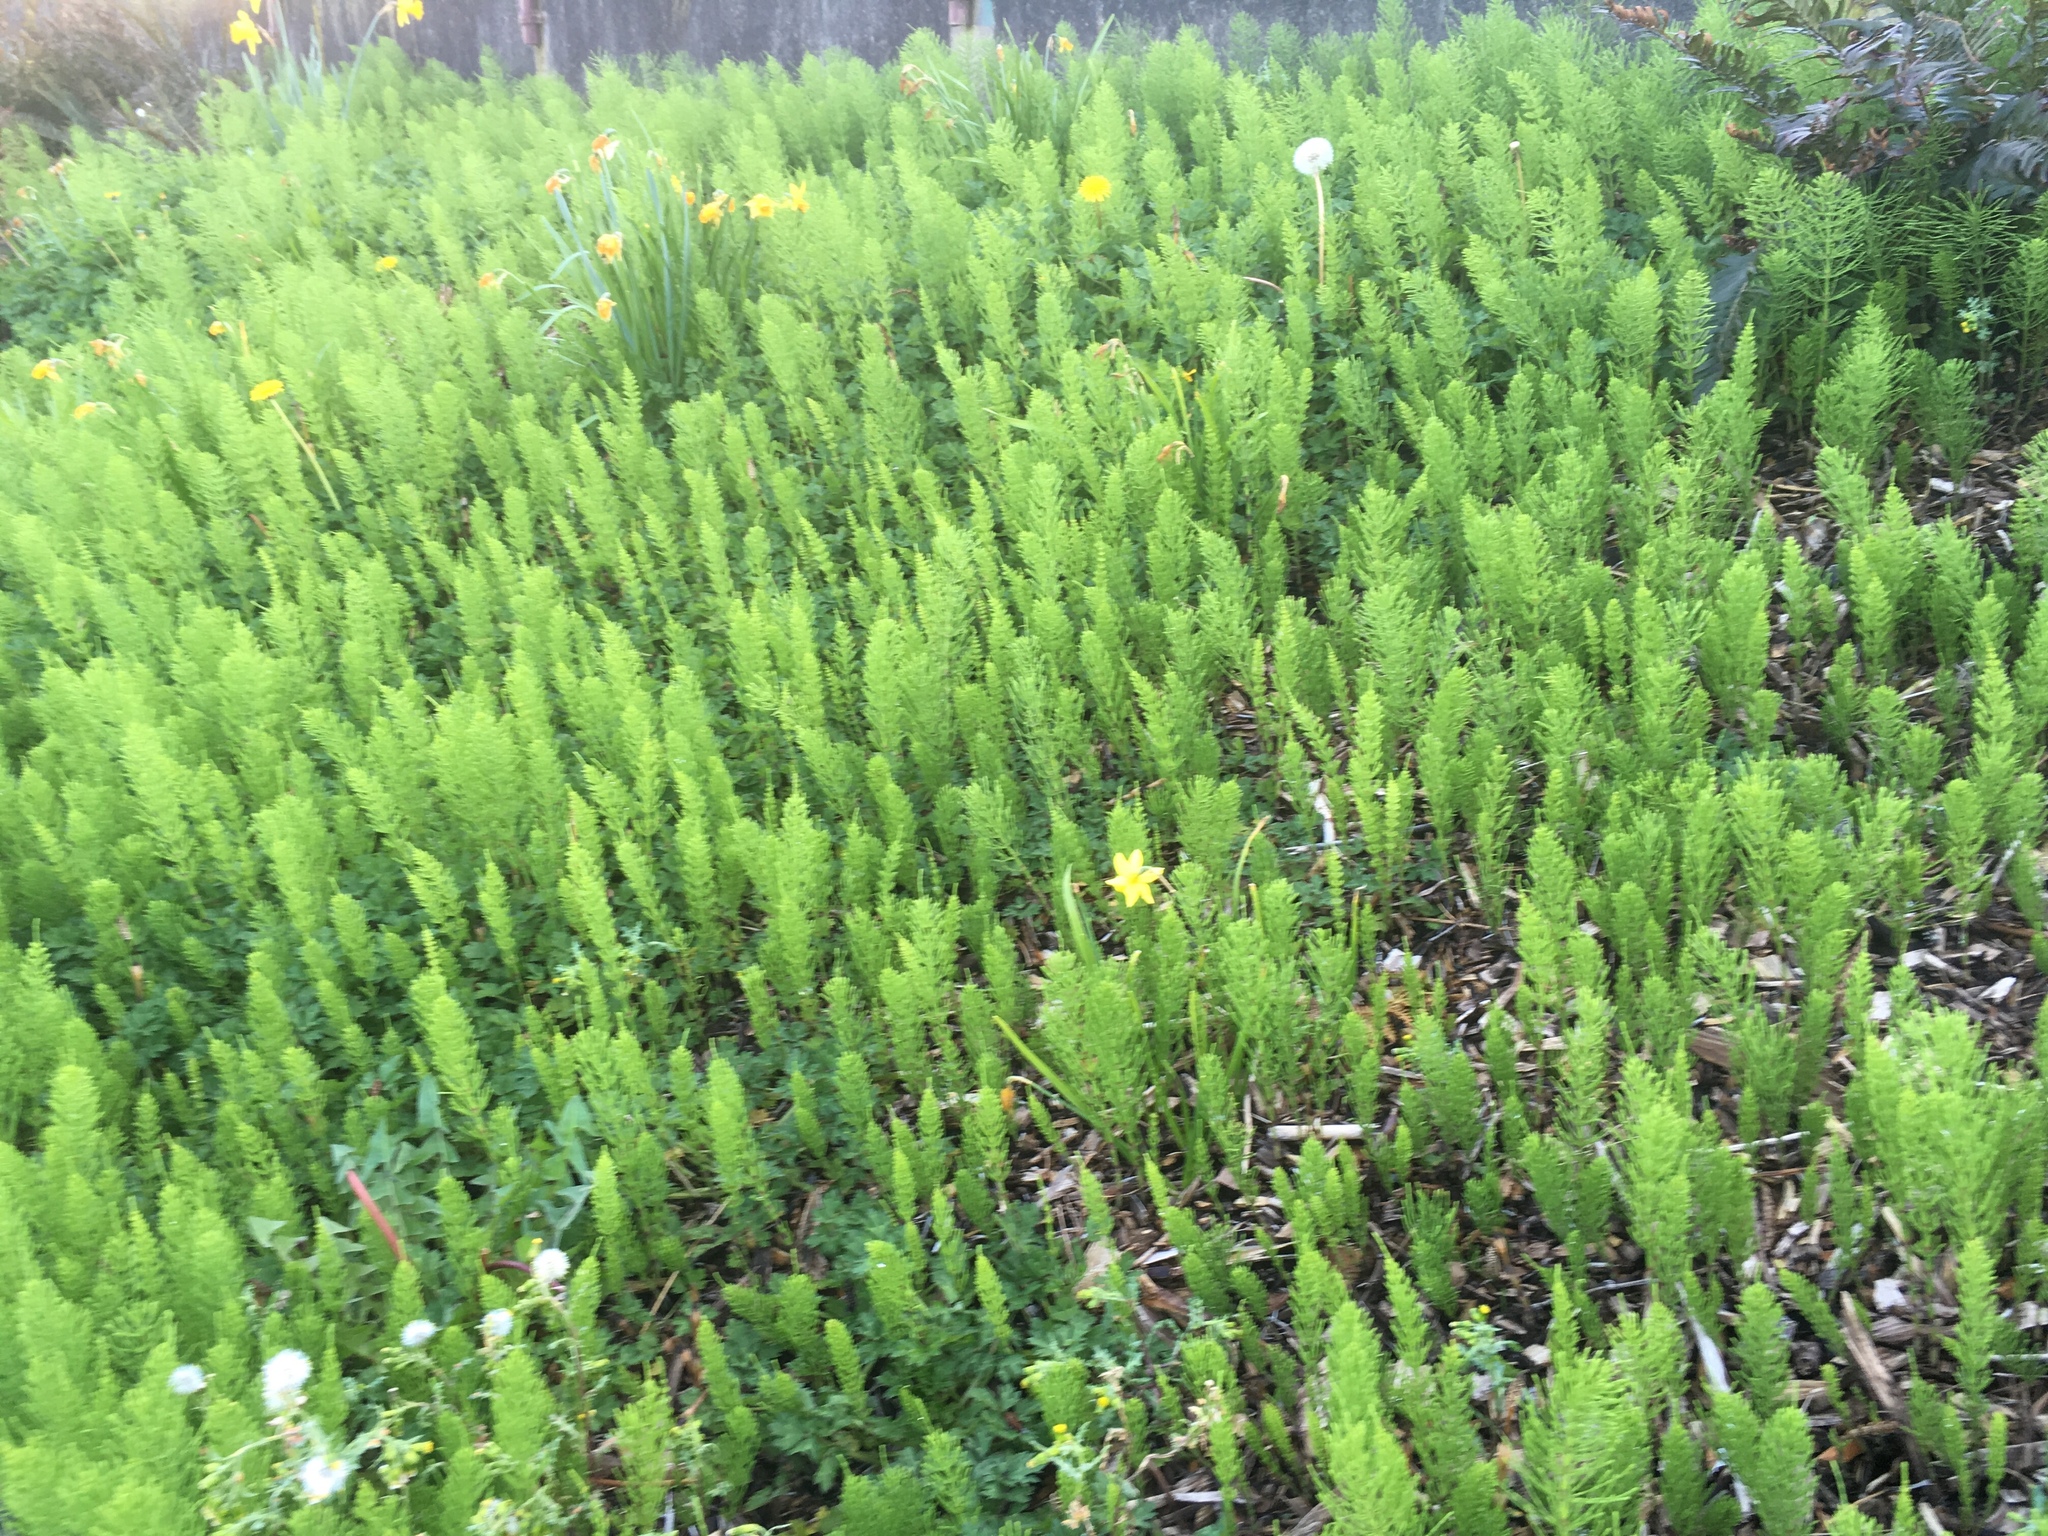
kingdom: Plantae
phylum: Tracheophyta
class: Polypodiopsida
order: Equisetales
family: Equisetaceae
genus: Equisetum
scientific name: Equisetum arvense
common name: Field horsetail
